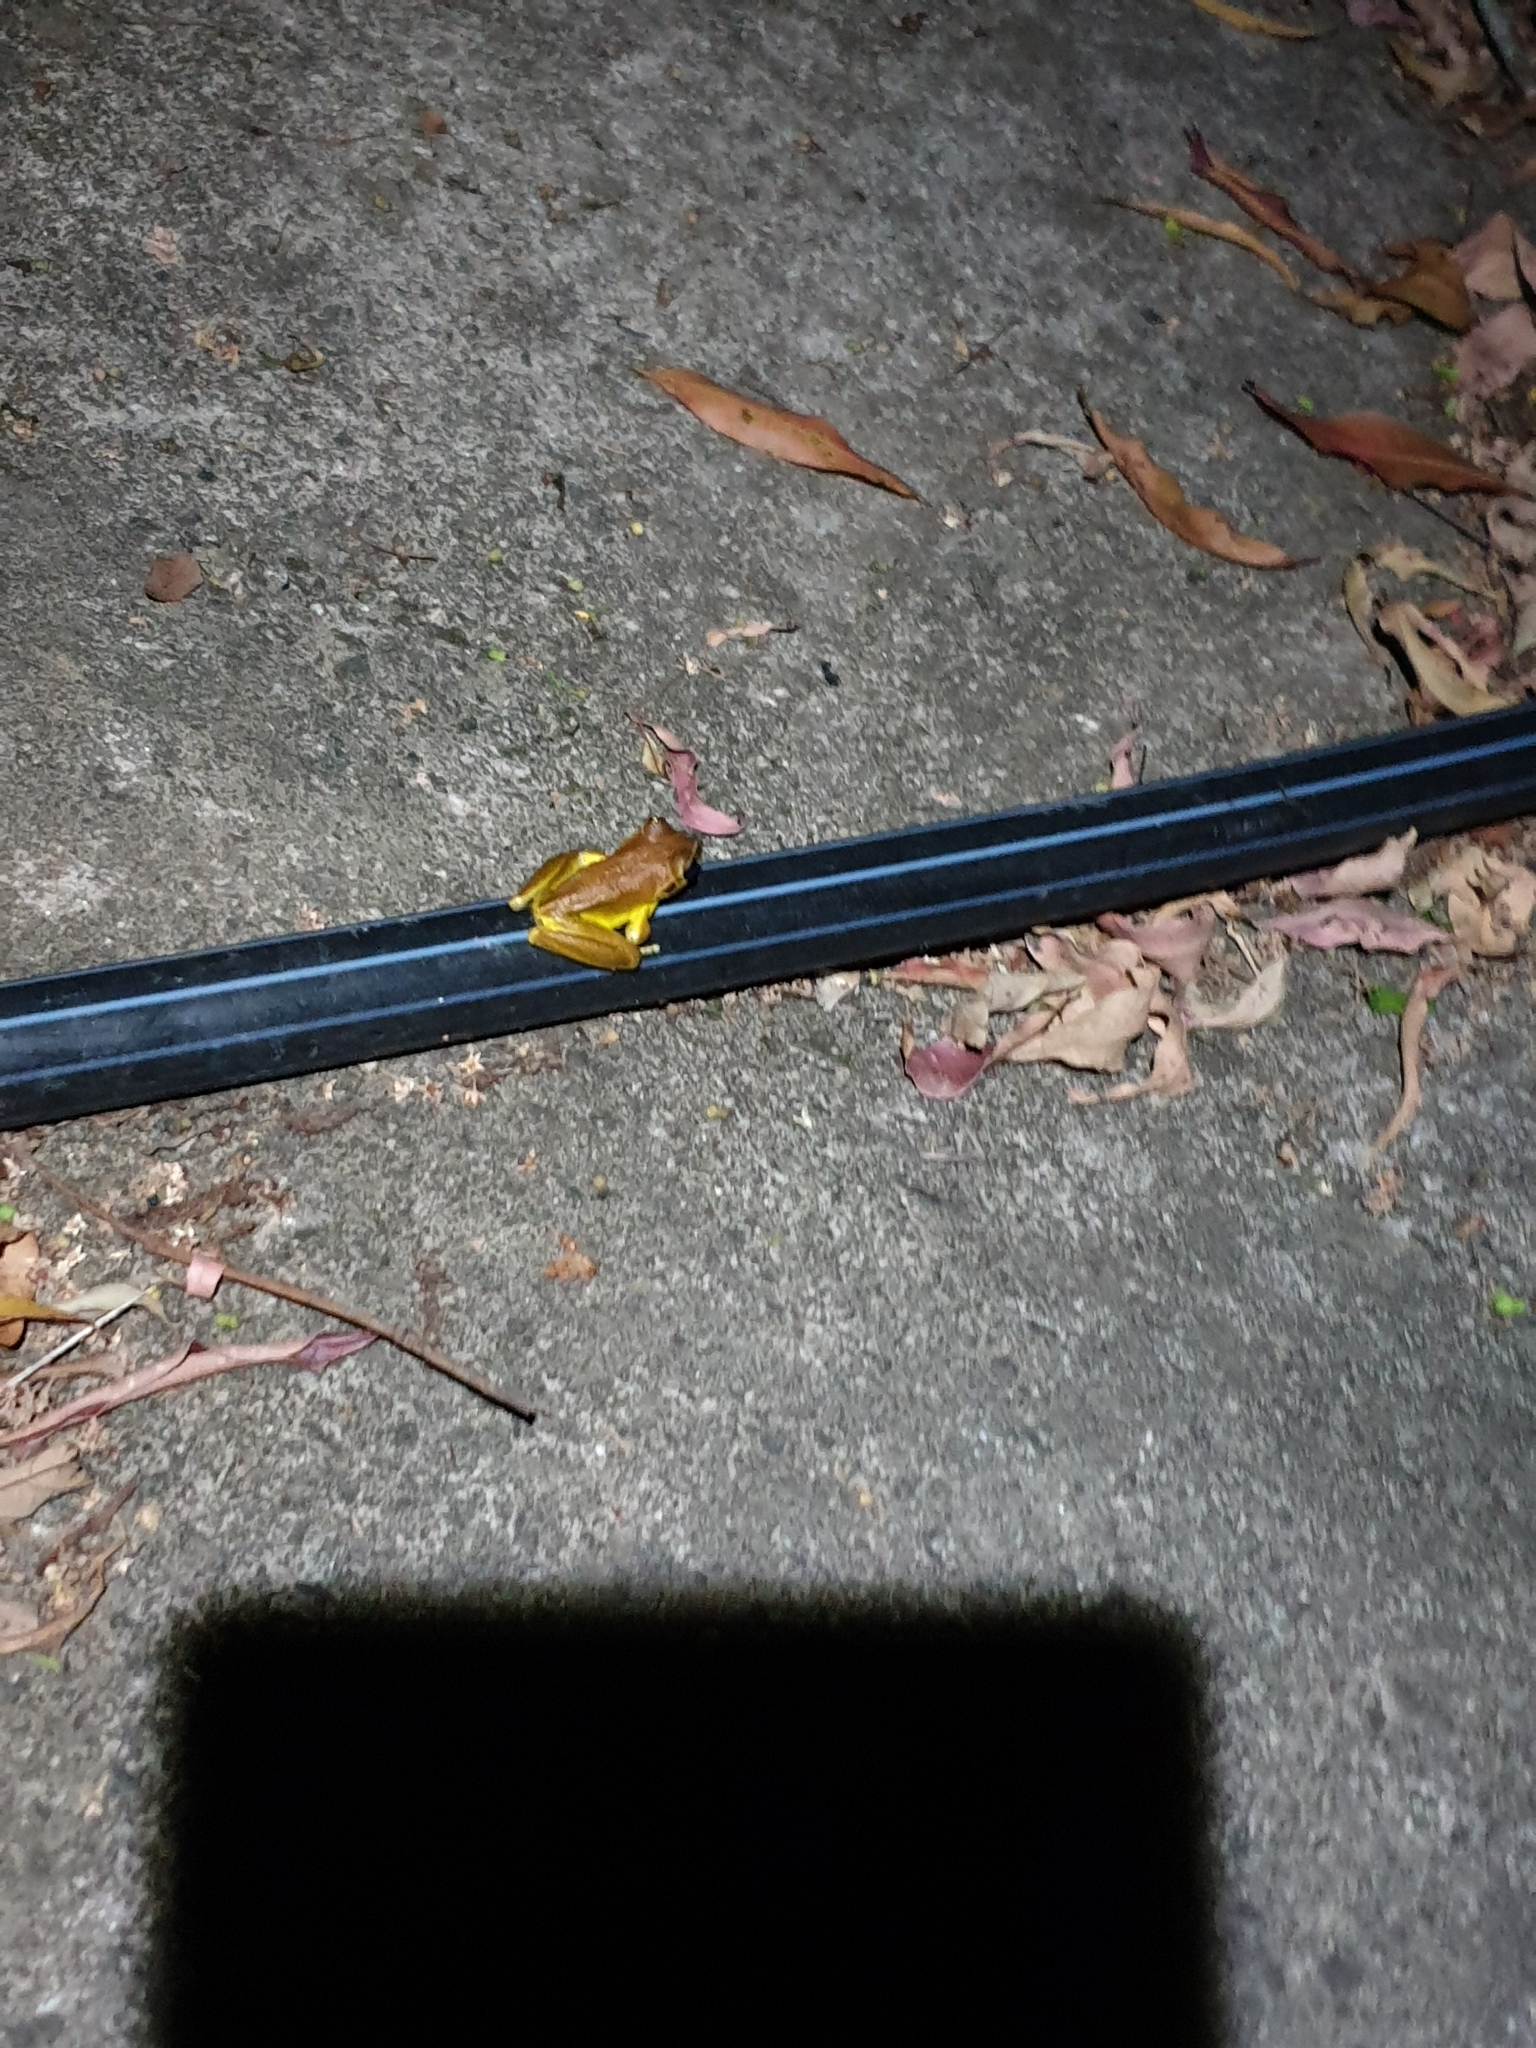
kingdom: Animalia
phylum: Chordata
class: Amphibia
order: Anura
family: Pelodryadidae
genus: Ranoidea
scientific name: Ranoidea wilcoxii
